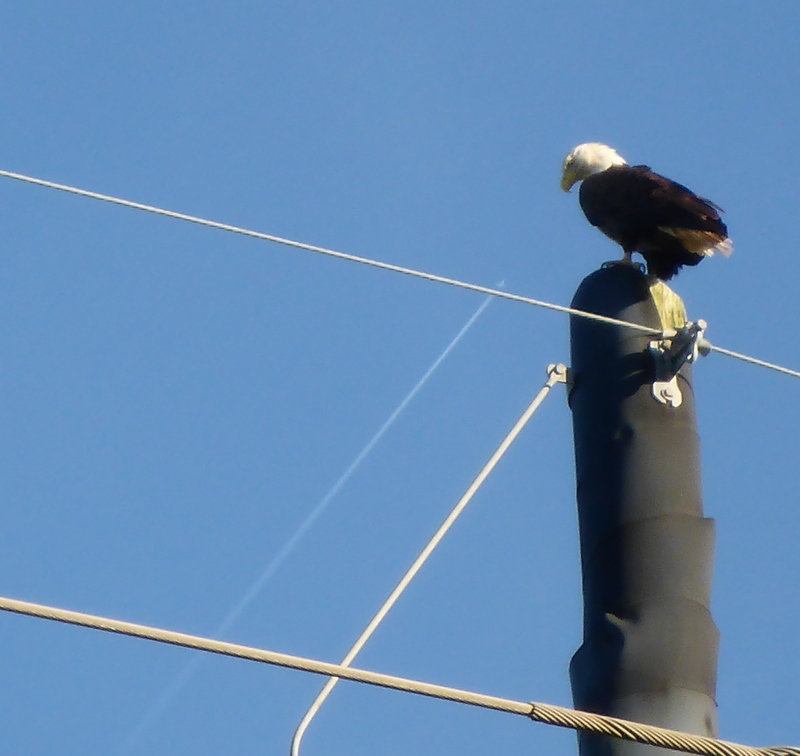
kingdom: Animalia
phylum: Chordata
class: Aves
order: Accipitriformes
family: Accipitridae
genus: Haliaeetus
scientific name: Haliaeetus leucocephalus
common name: Bald eagle
